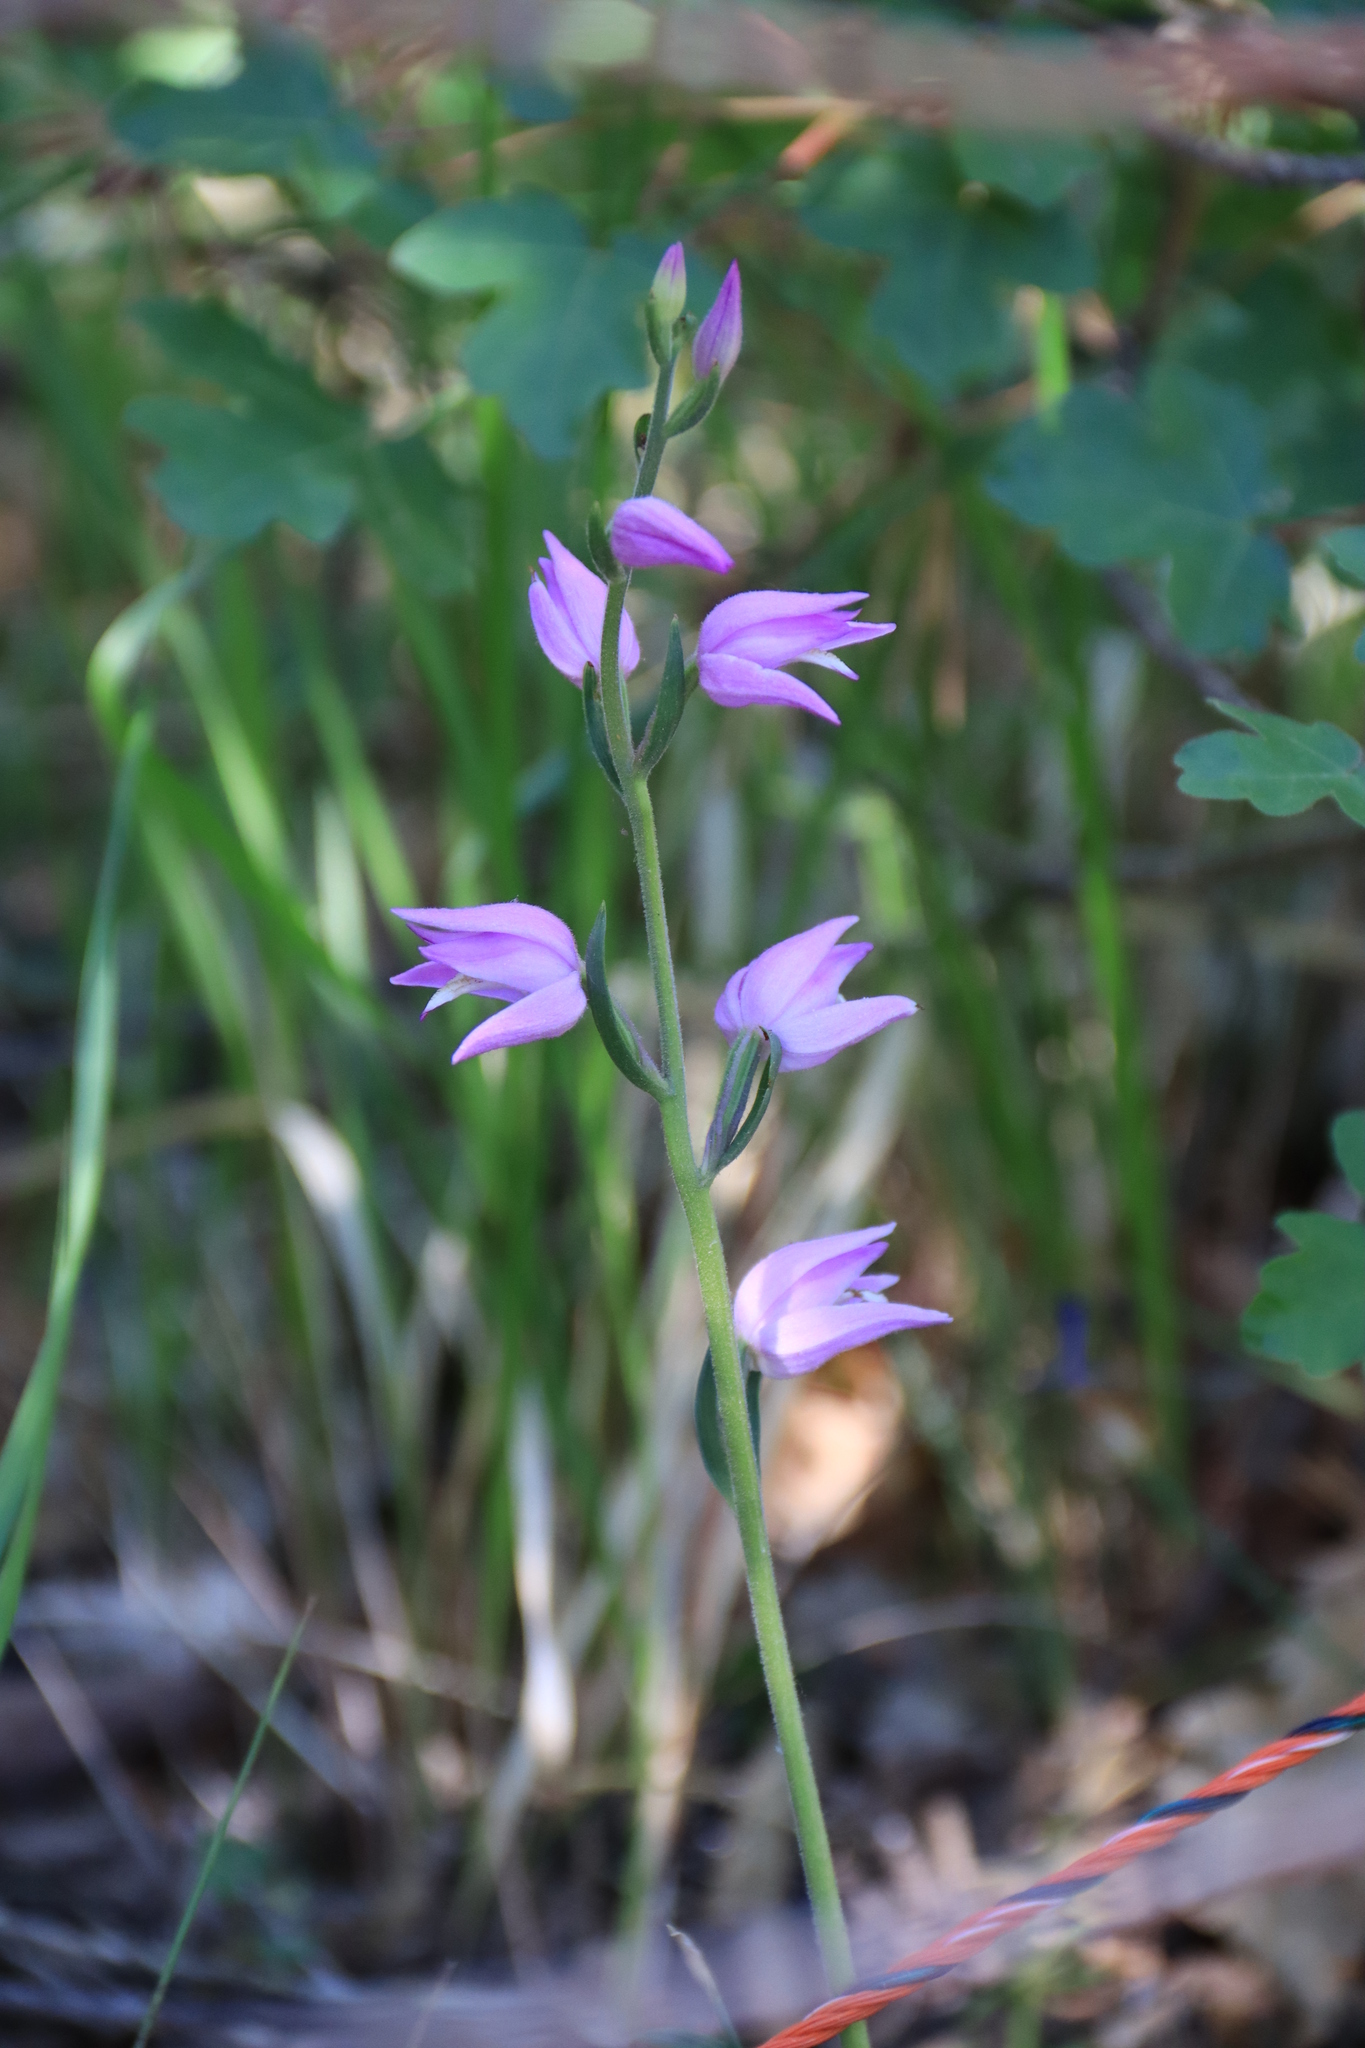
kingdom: Plantae
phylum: Tracheophyta
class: Liliopsida
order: Asparagales
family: Orchidaceae
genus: Cephalanthera
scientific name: Cephalanthera rubra
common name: Red helleborine
